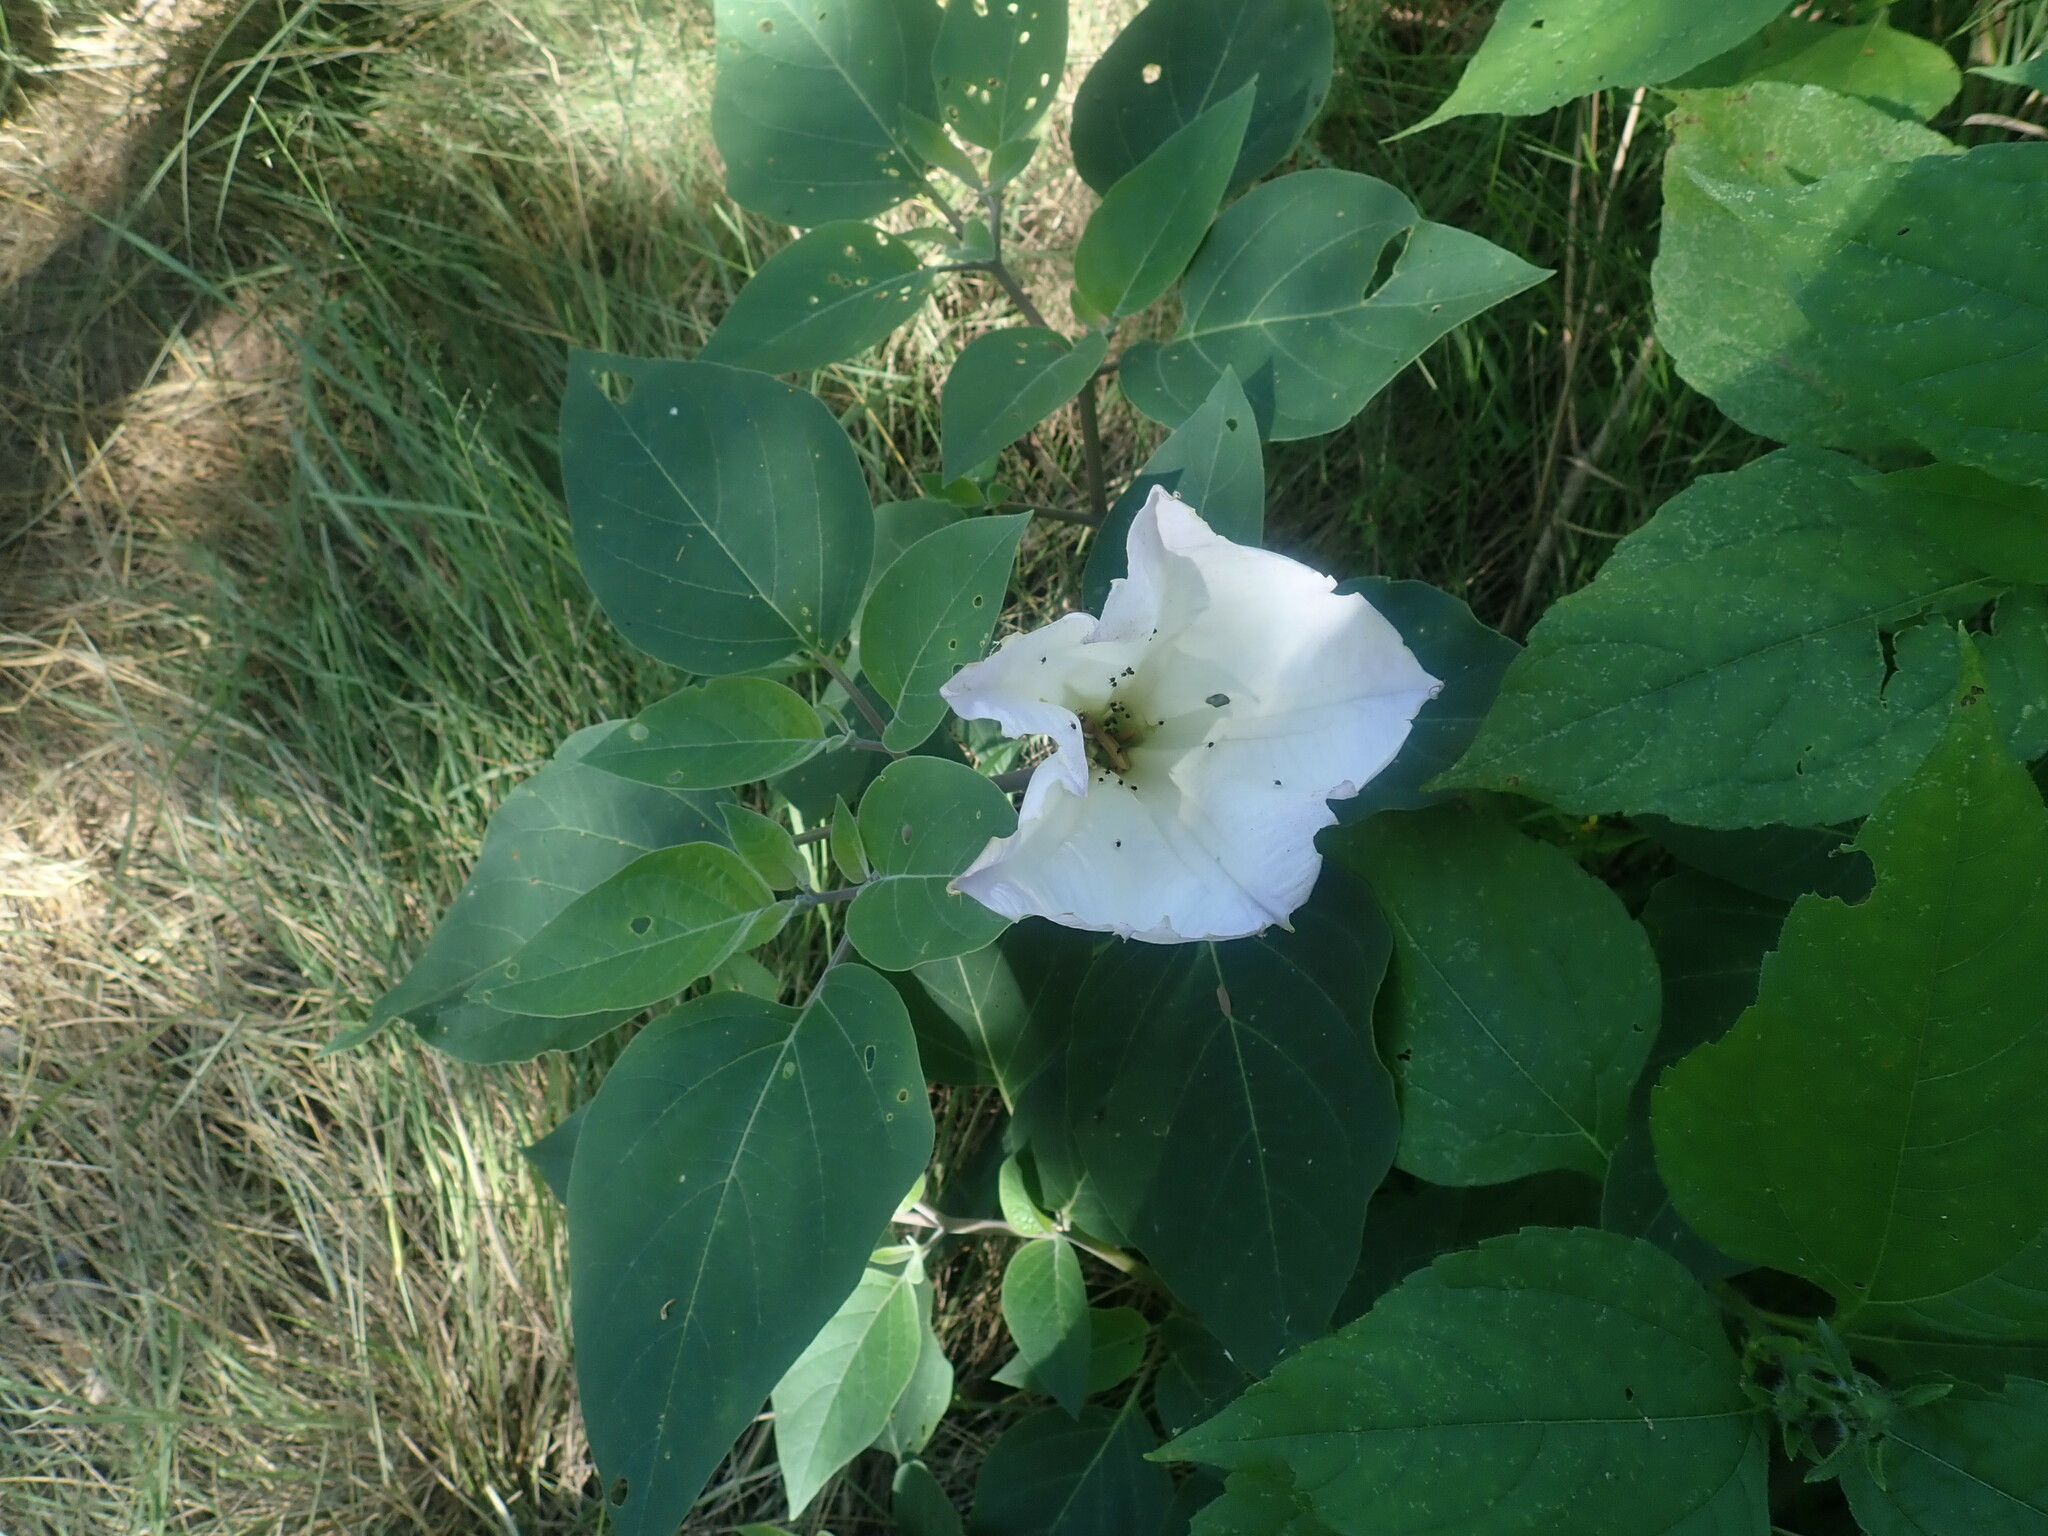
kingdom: Plantae
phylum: Tracheophyta
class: Magnoliopsida
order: Solanales
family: Solanaceae
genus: Datura
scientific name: Datura wrightii
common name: Sacred thorn-apple
